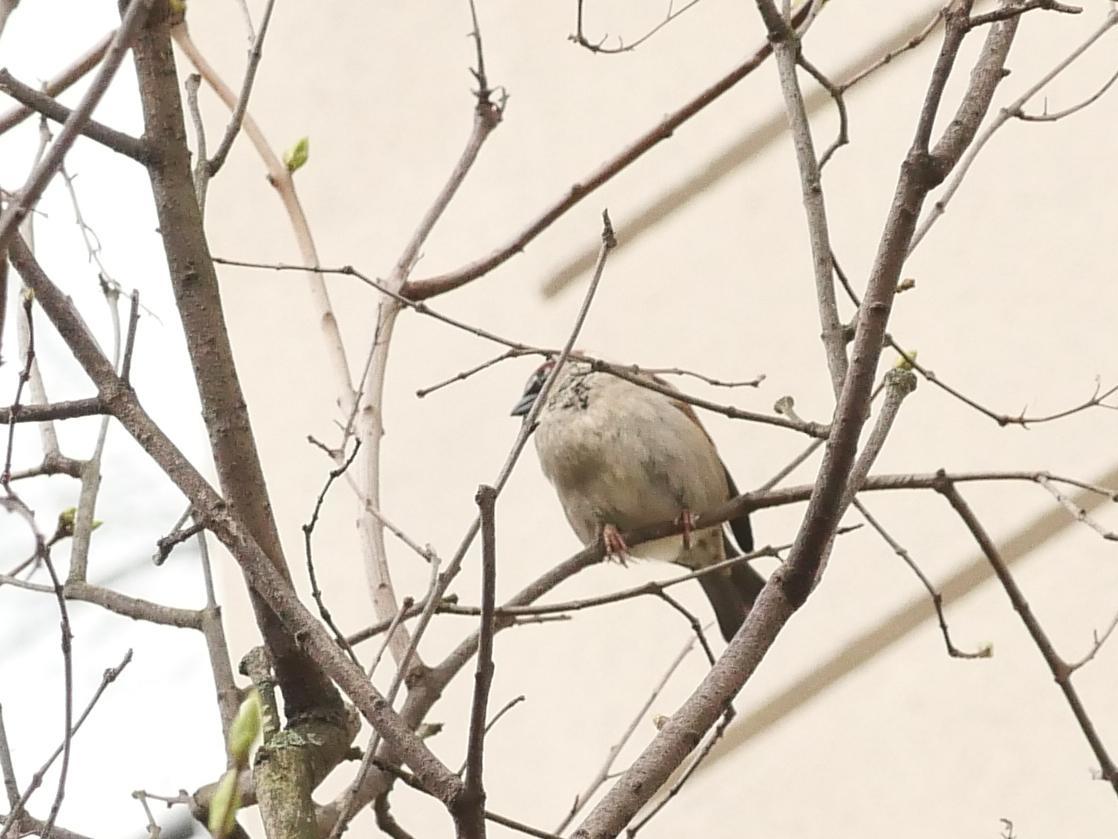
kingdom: Animalia
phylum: Chordata
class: Aves
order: Passeriformes
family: Passeridae
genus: Passer
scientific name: Passer domesticus
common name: House sparrow
